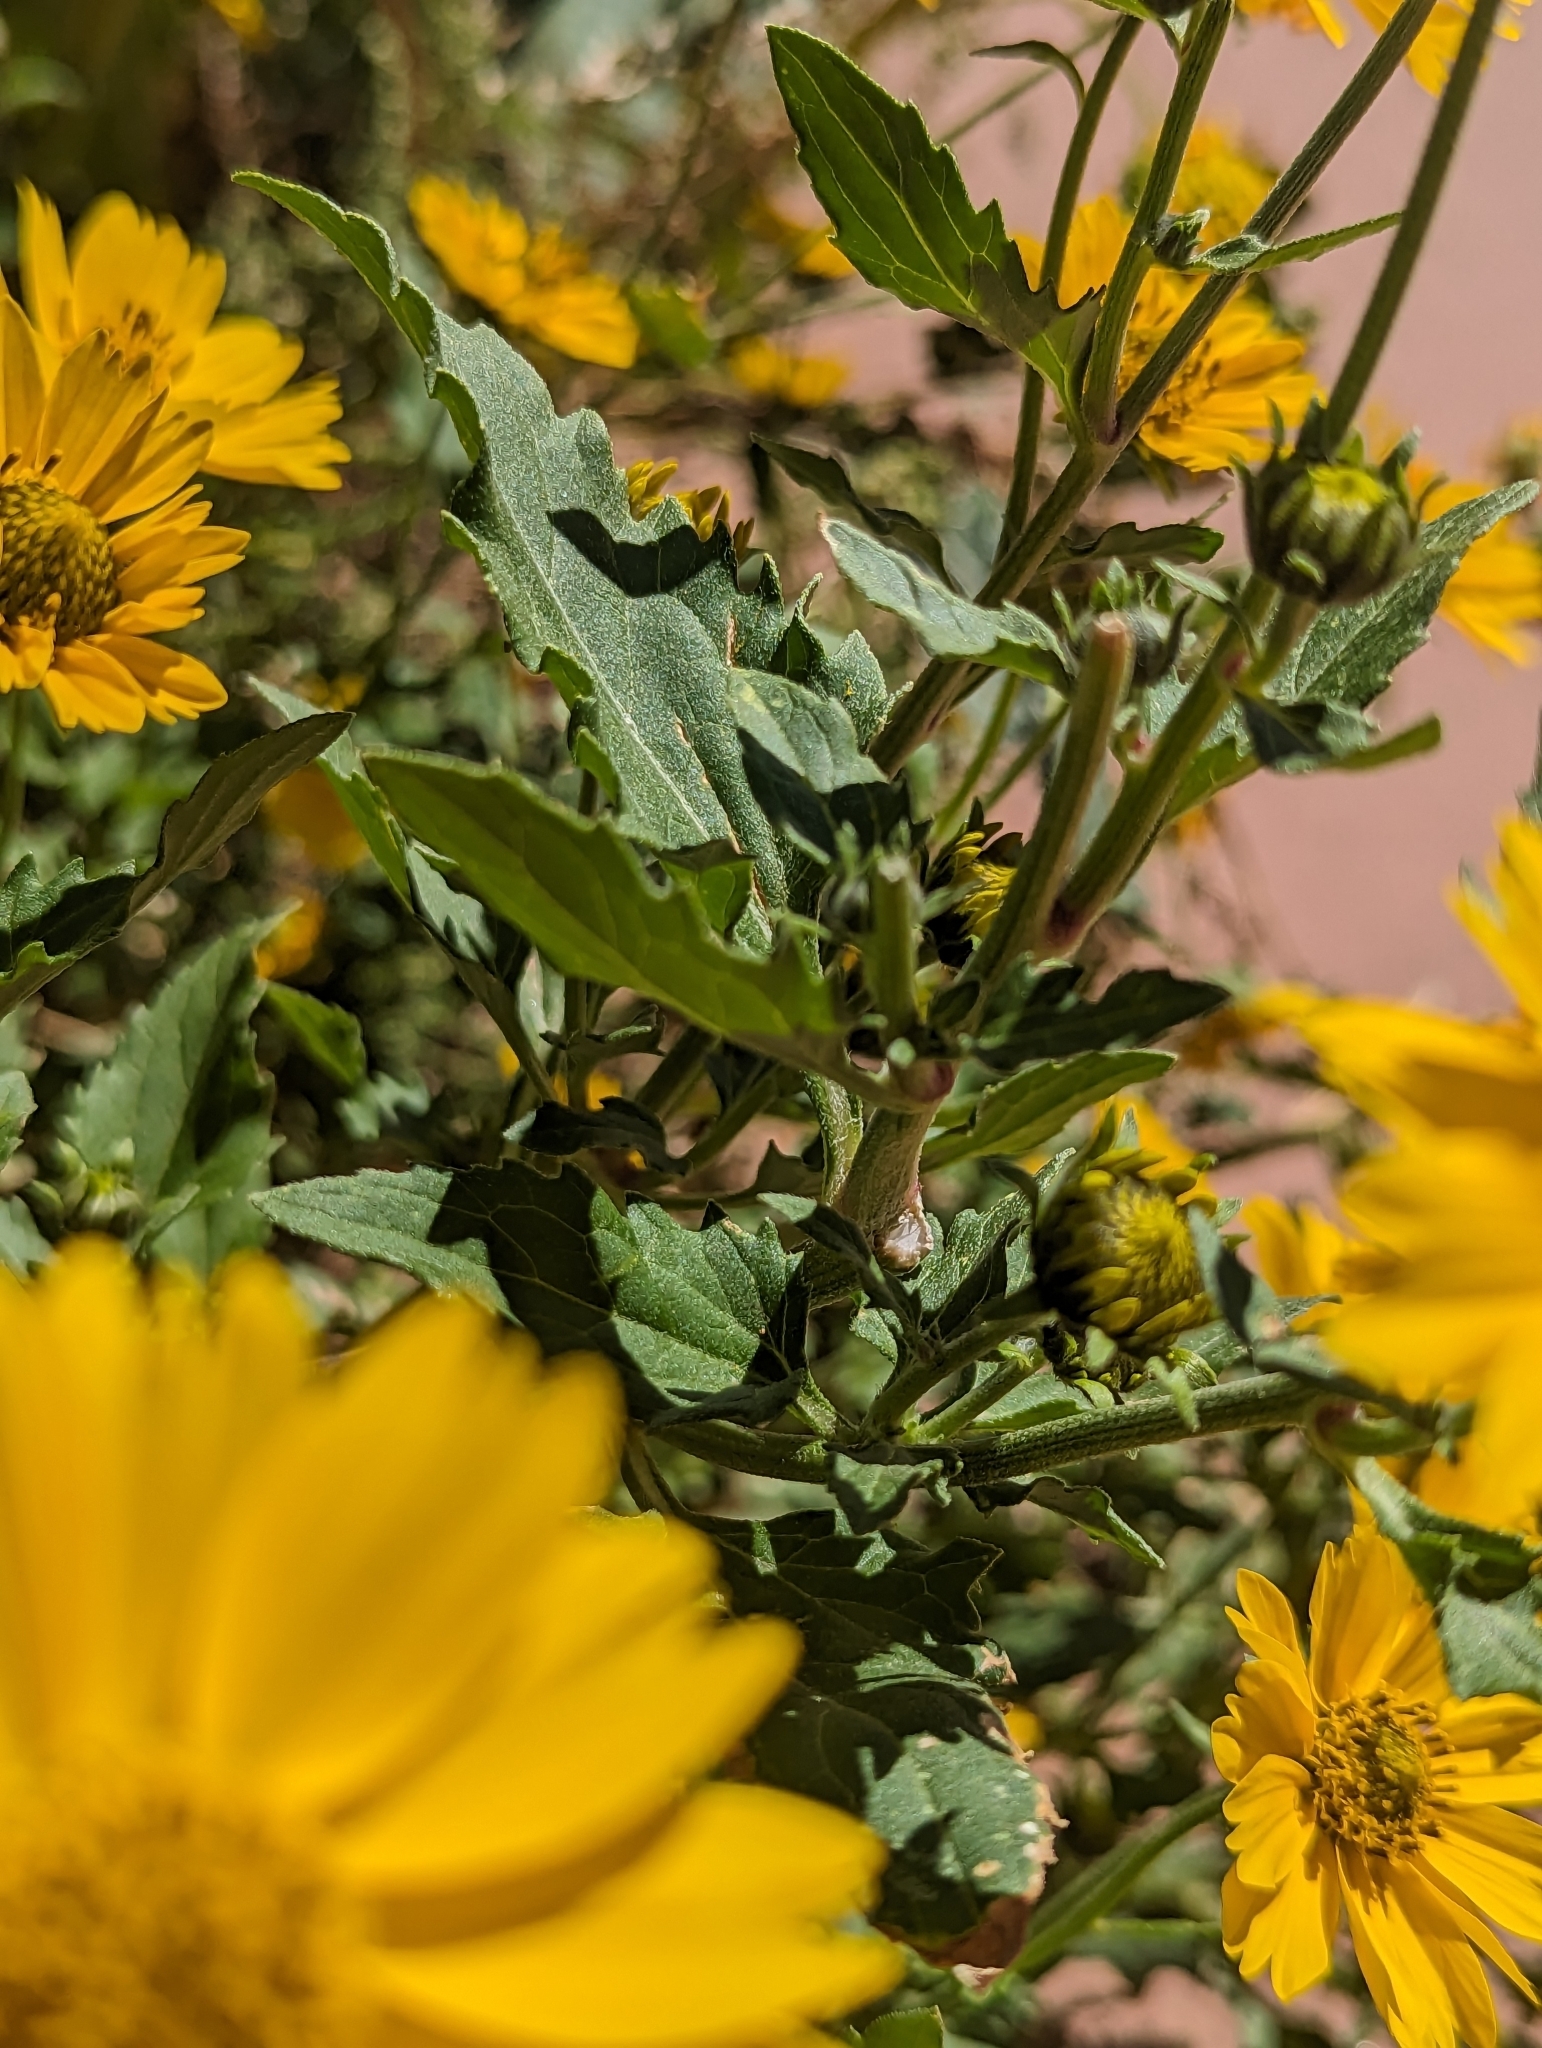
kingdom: Plantae
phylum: Tracheophyta
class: Magnoliopsida
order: Asterales
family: Asteraceae
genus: Verbesina
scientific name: Verbesina encelioides
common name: Golden crownbeard
